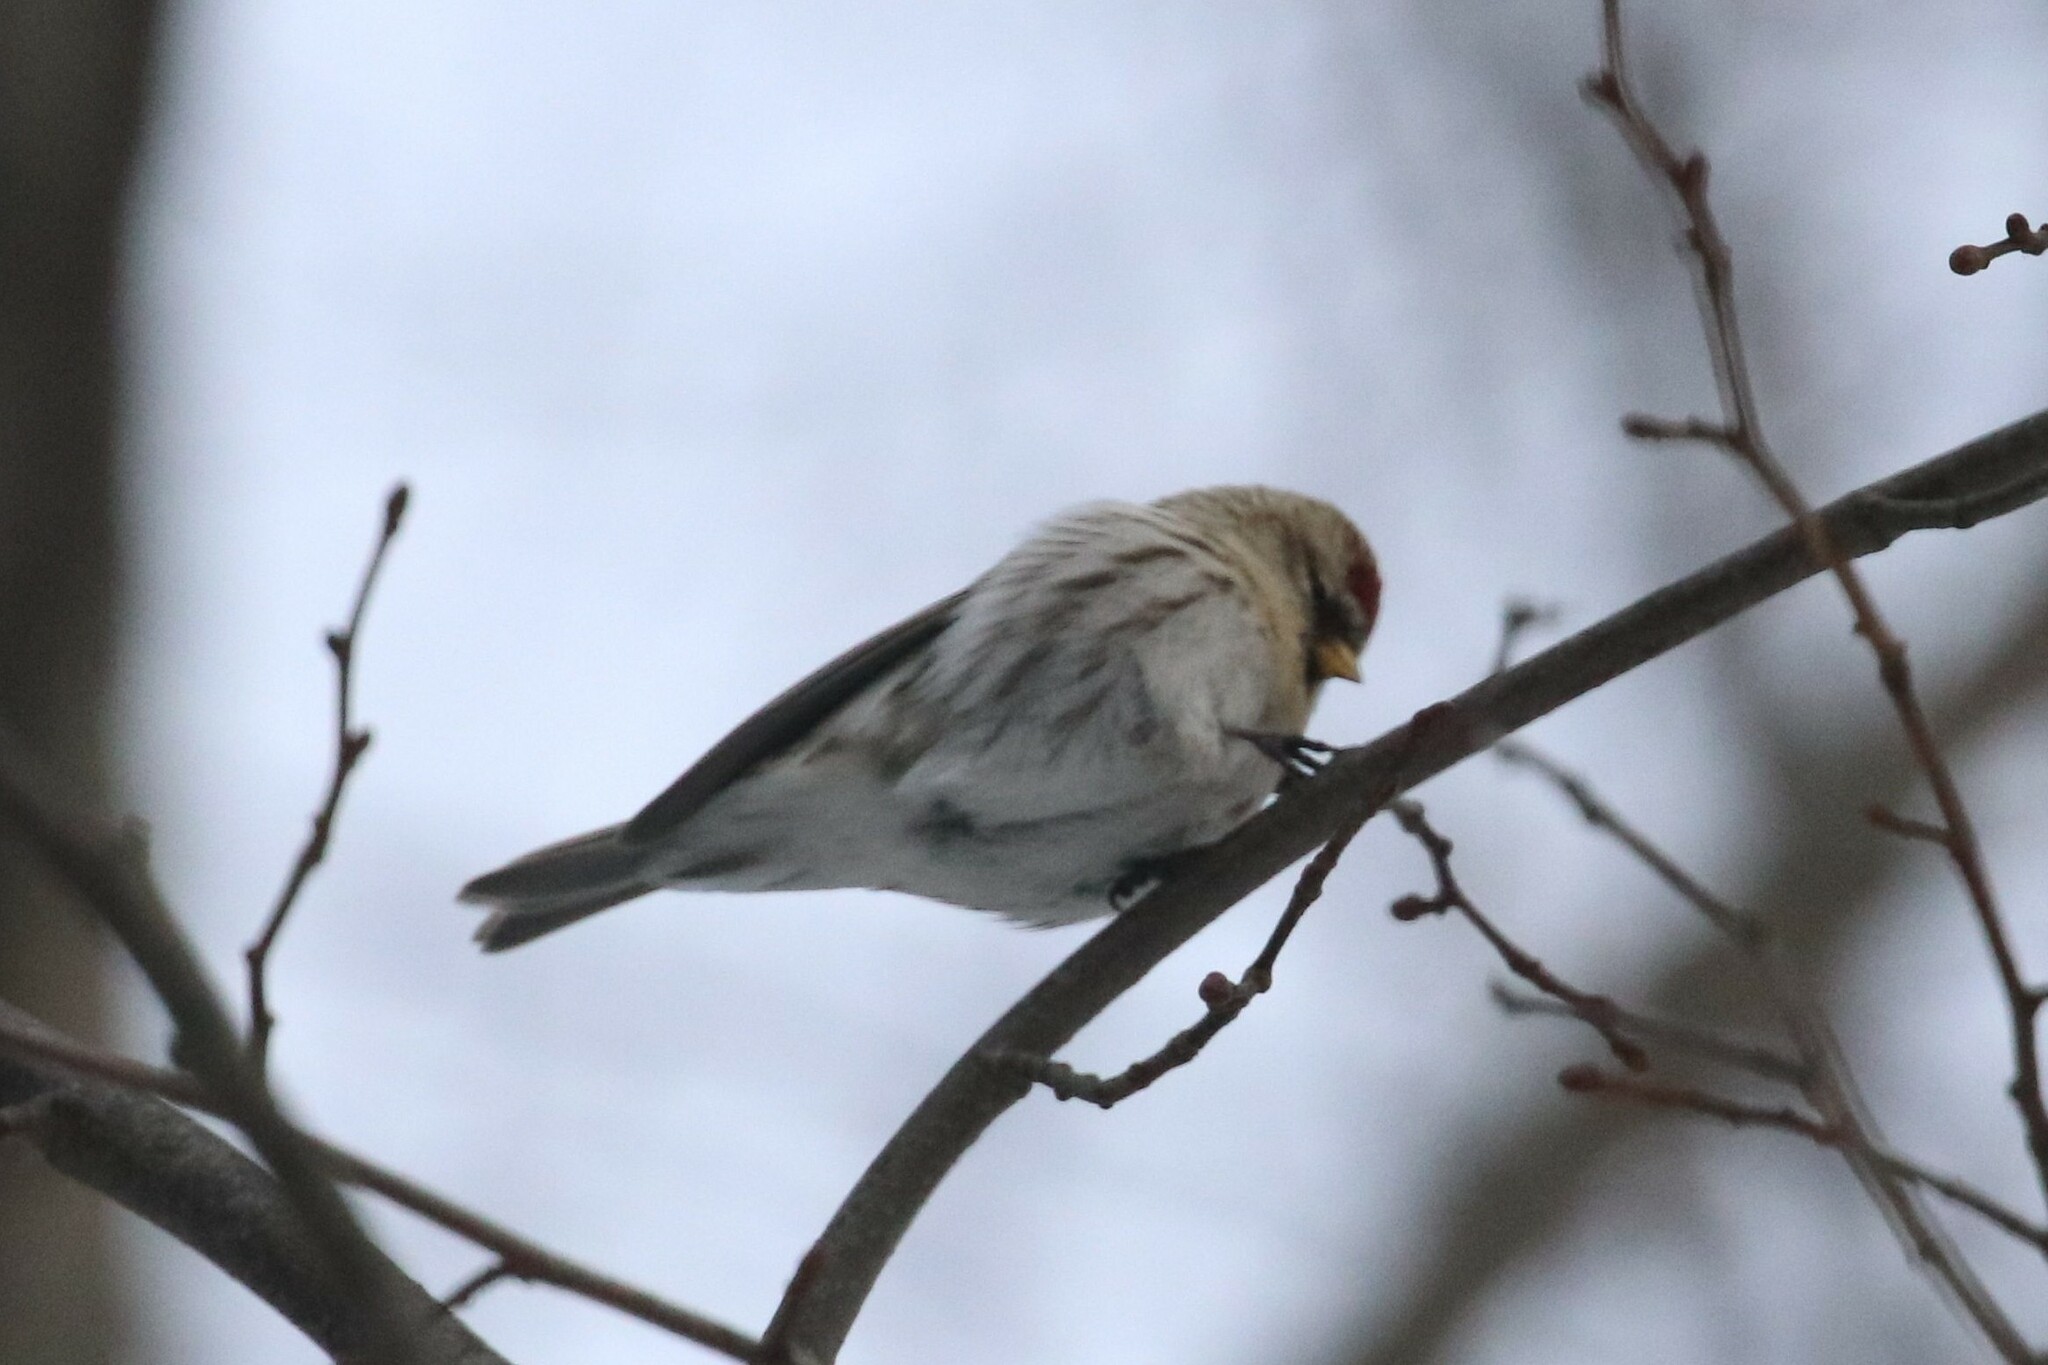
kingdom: Animalia
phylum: Chordata
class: Aves
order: Passeriformes
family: Fringillidae
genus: Acanthis
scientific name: Acanthis flammea
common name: Common redpoll
